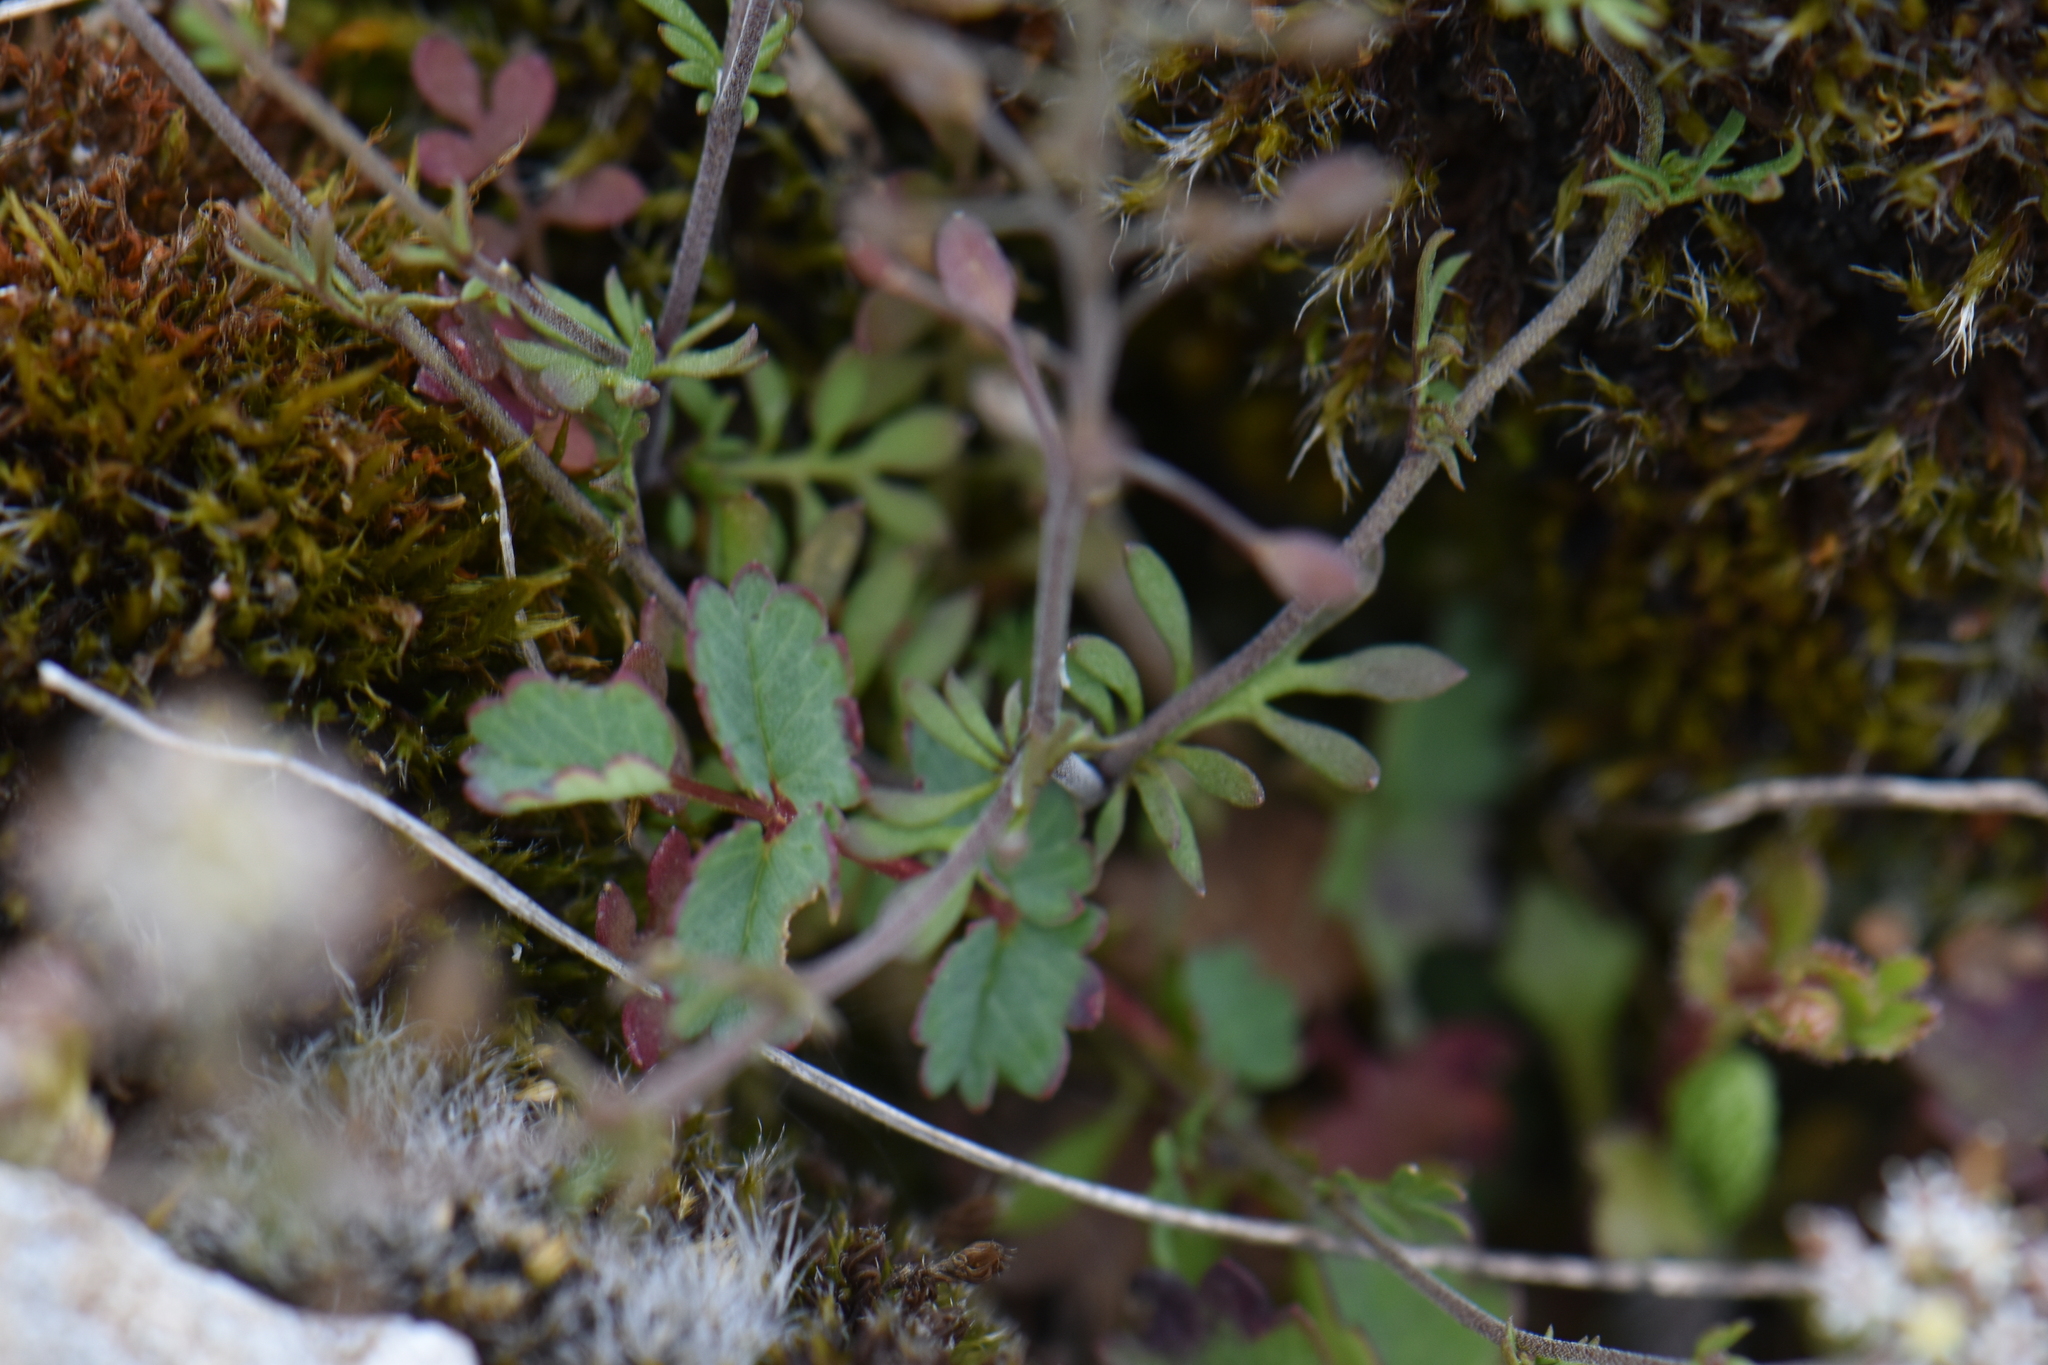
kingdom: Plantae
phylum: Tracheophyta
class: Magnoliopsida
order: Brassicales
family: Brassicaceae
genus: Hornungia
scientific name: Hornungia petraea
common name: Hutchinsia
